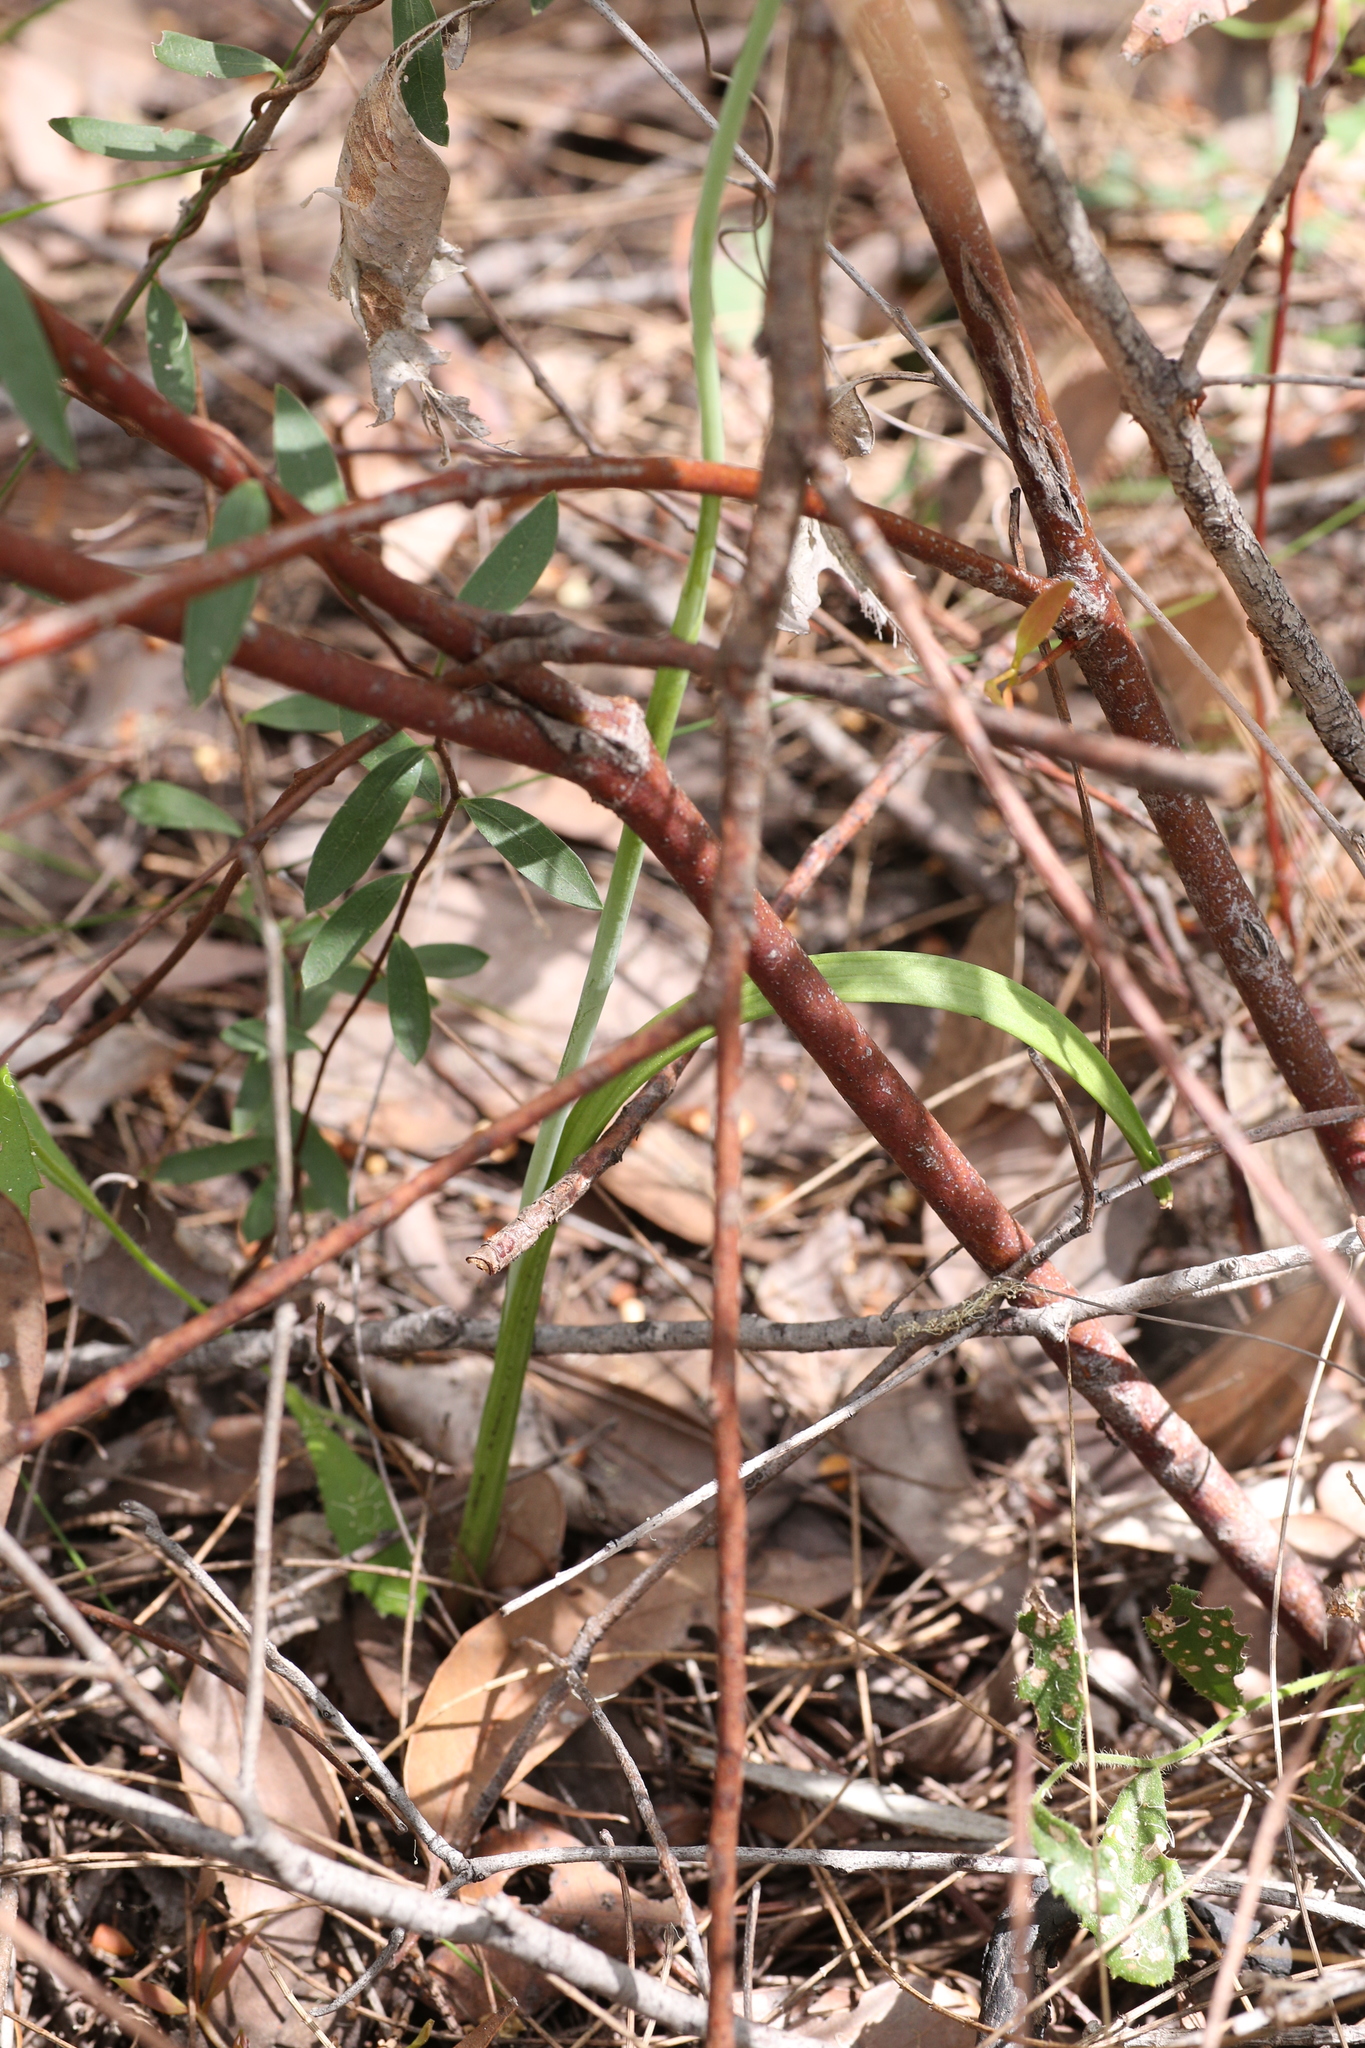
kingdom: Plantae
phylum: Tracheophyta
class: Liliopsida
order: Asparagales
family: Orchidaceae
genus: Thelymitra
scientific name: Thelymitra paludosa
